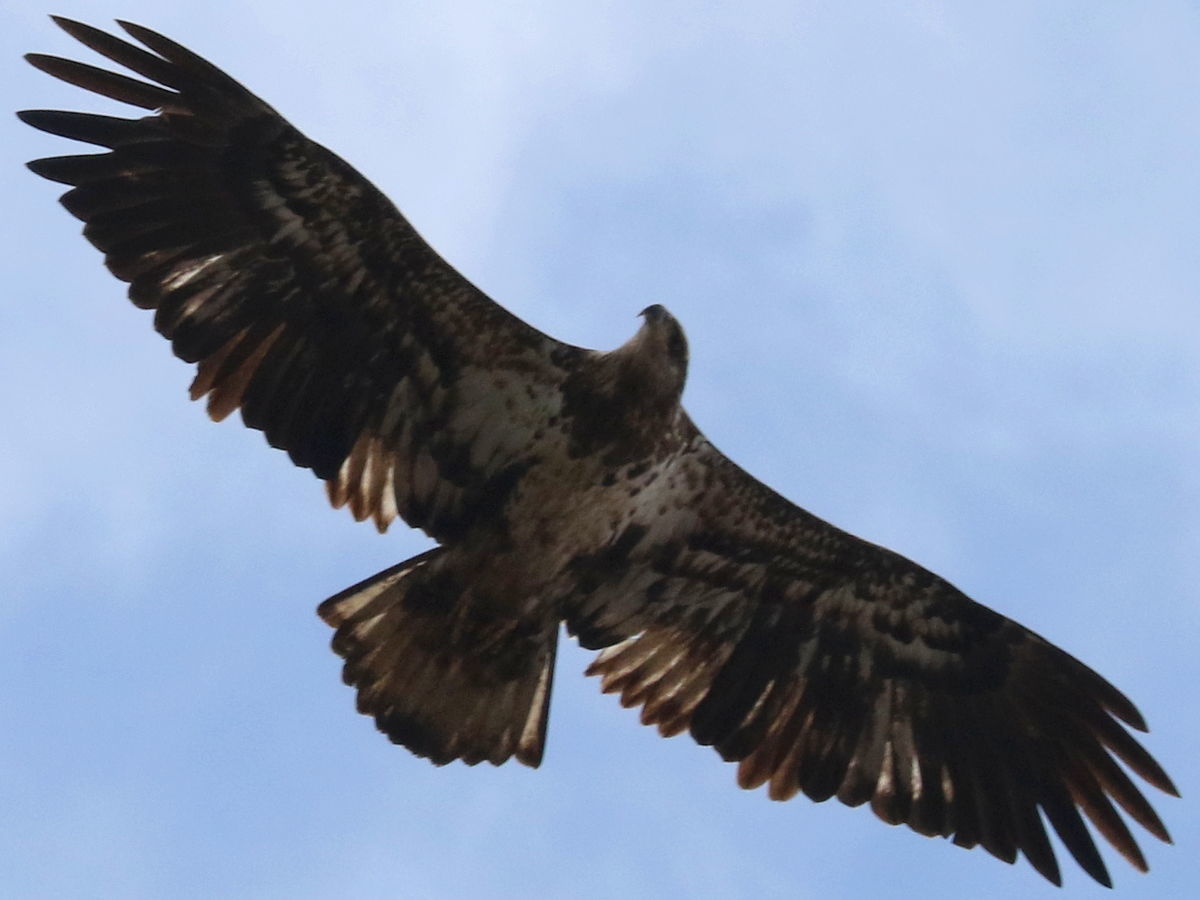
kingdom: Animalia
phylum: Chordata
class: Aves
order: Accipitriformes
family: Accipitridae
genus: Haliaeetus
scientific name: Haliaeetus leucocephalus
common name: Bald eagle
